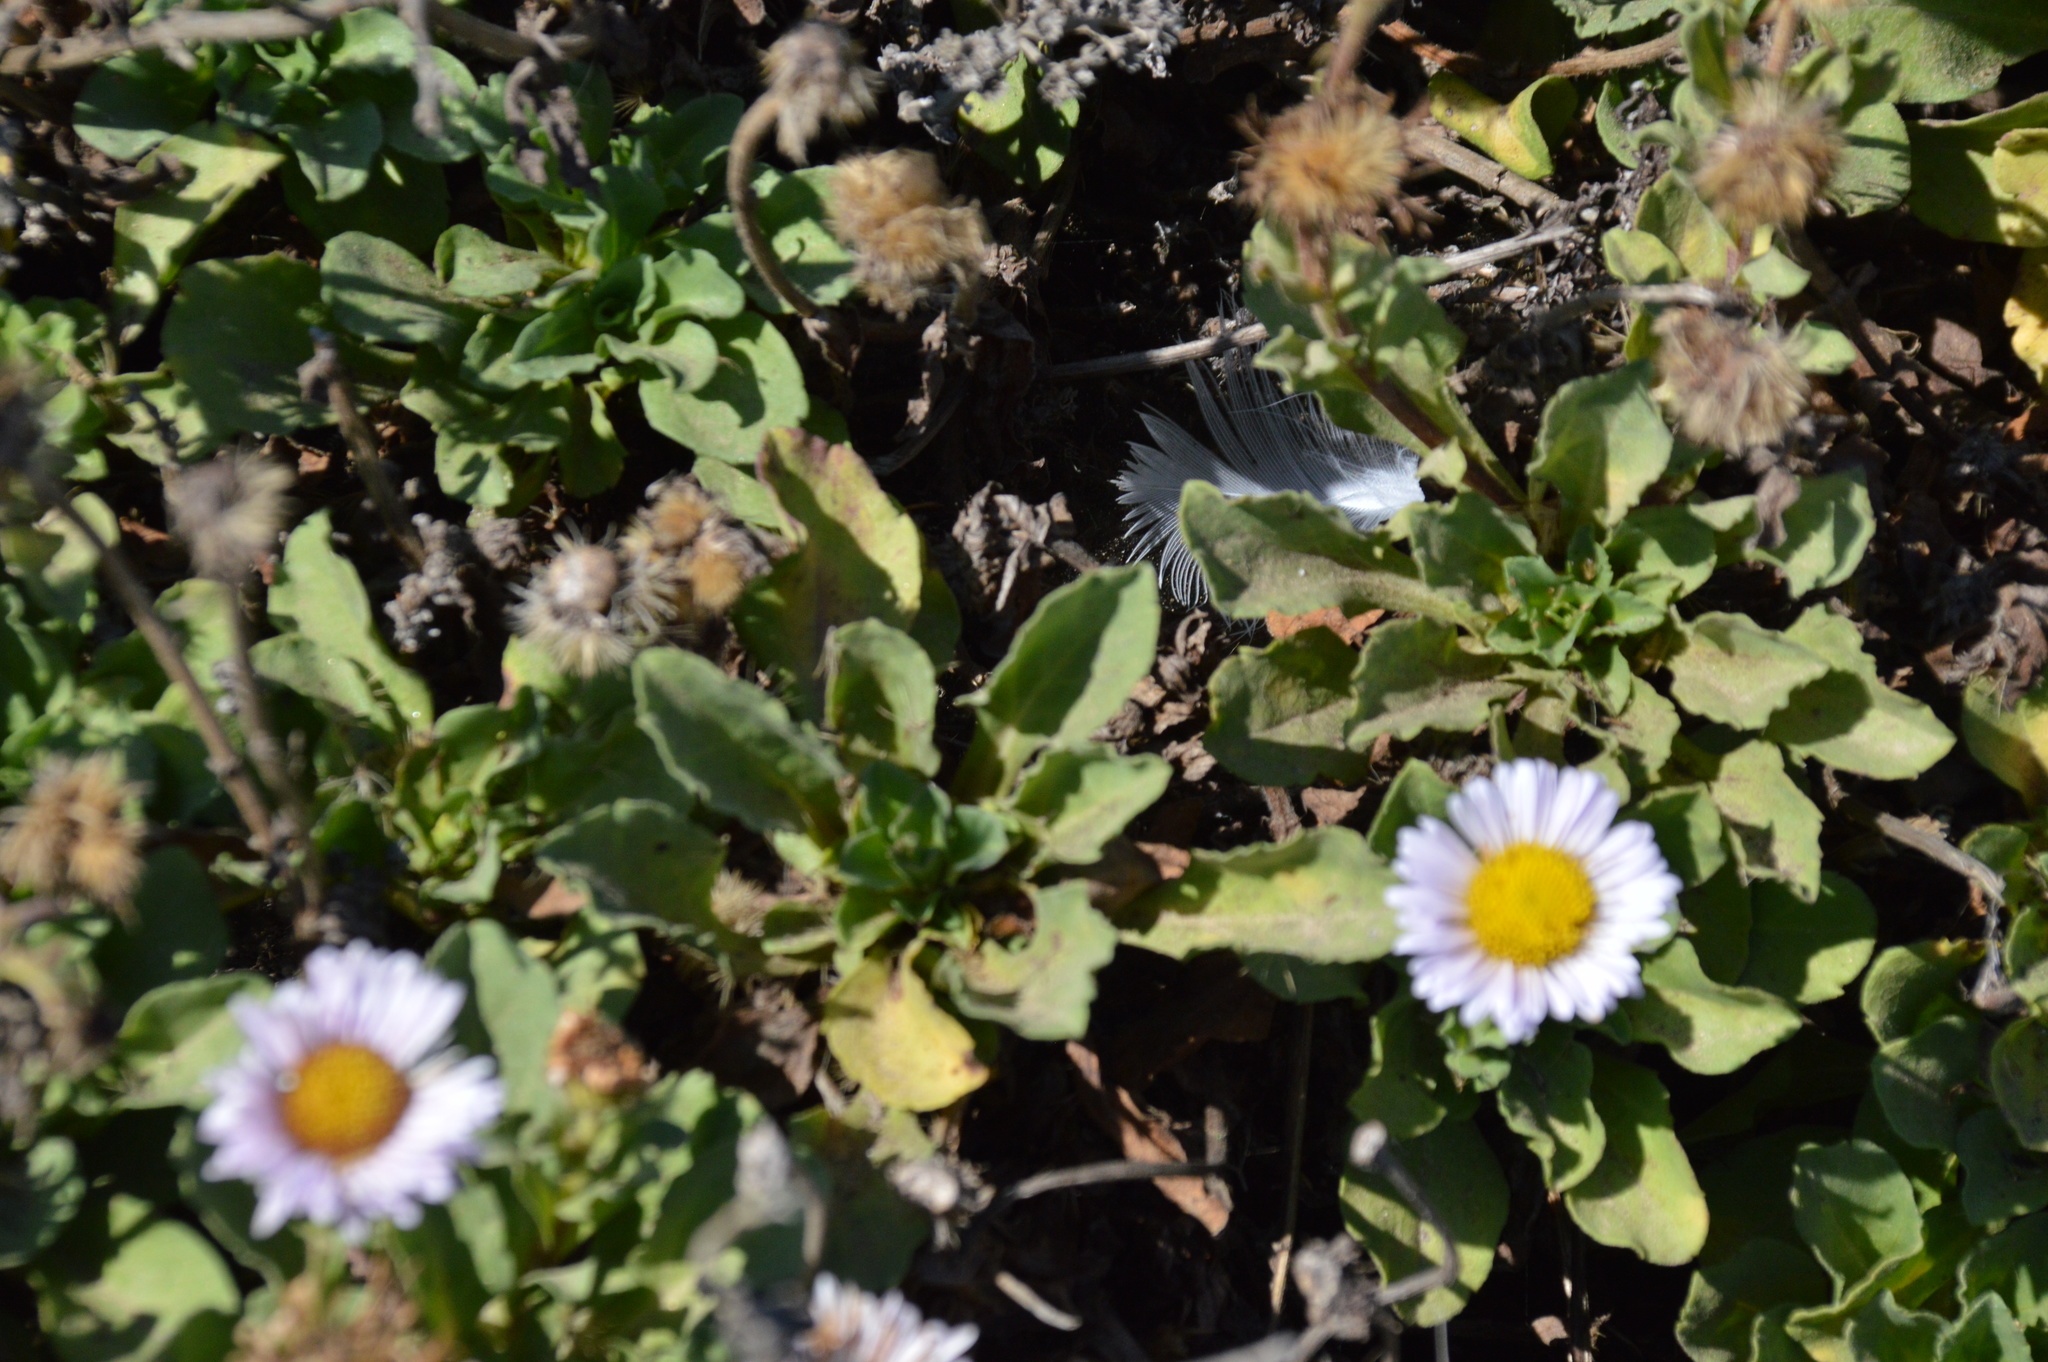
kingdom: Plantae
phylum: Tracheophyta
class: Magnoliopsida
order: Asterales
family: Asteraceae
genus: Erigeron
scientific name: Erigeron glaucus
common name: Seaside daisy
